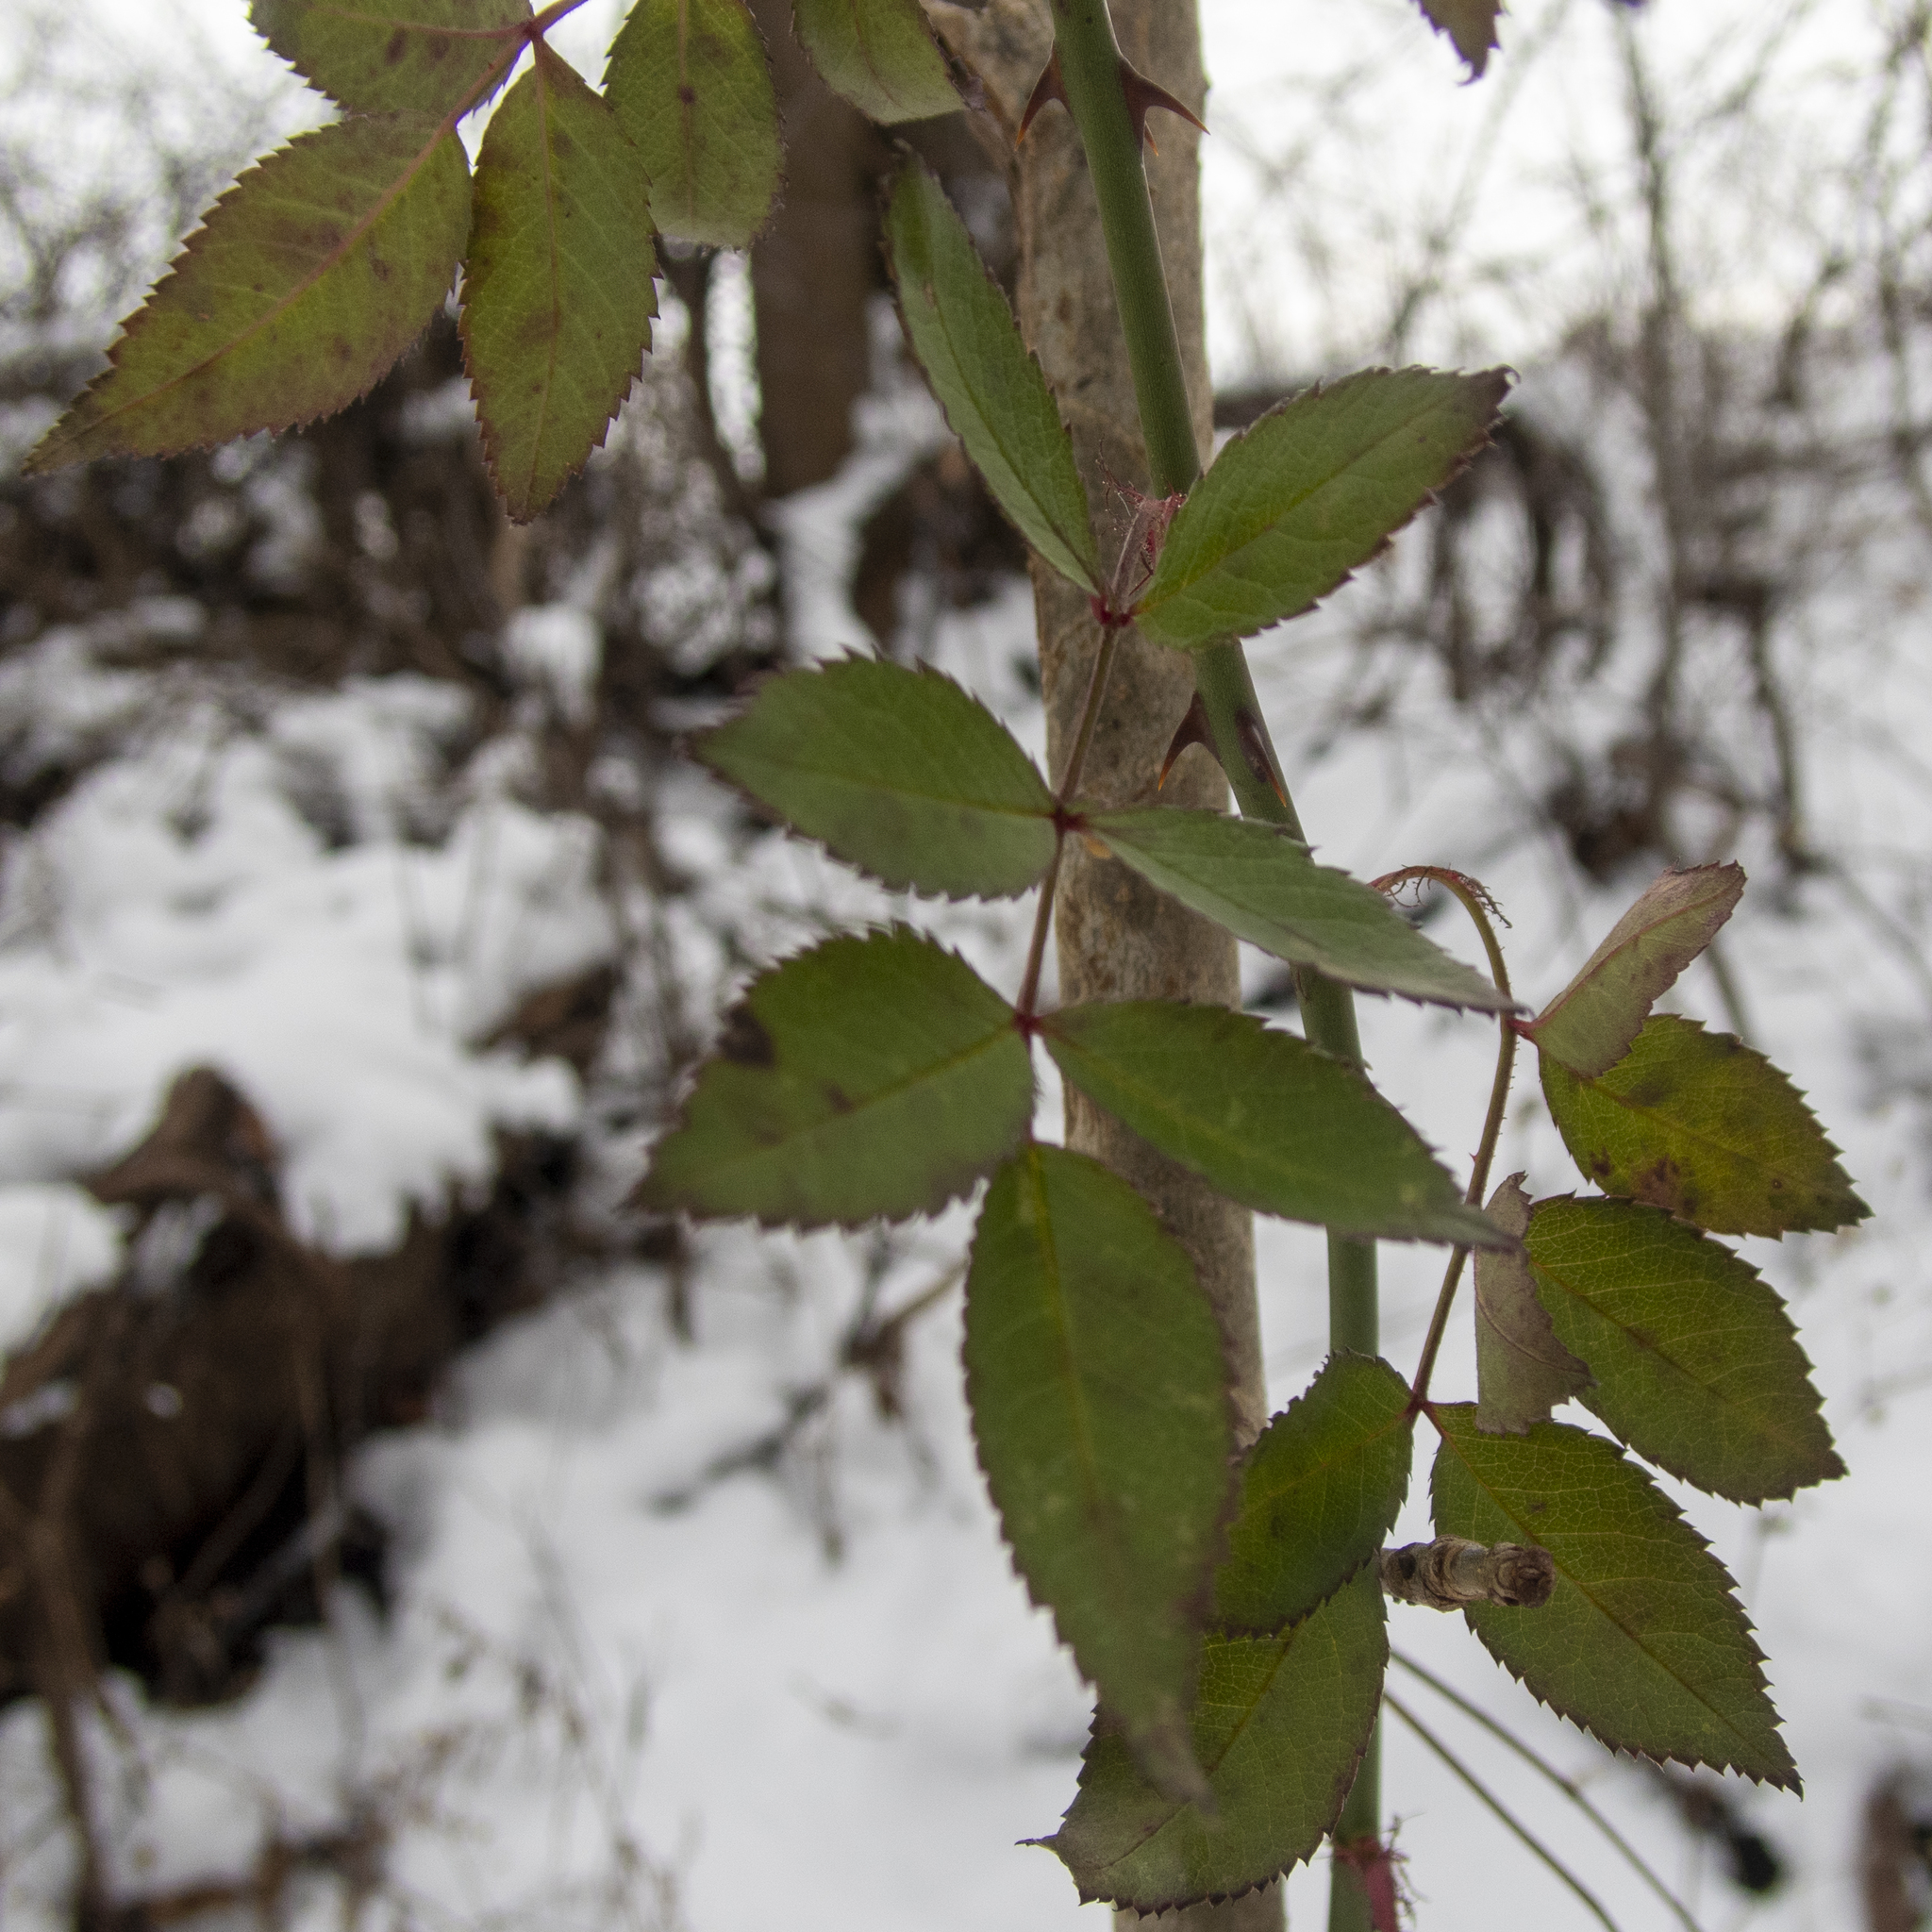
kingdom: Plantae
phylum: Tracheophyta
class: Magnoliopsida
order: Rosales
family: Rosaceae
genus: Rosa
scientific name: Rosa multiflora
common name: Multiflora rose
